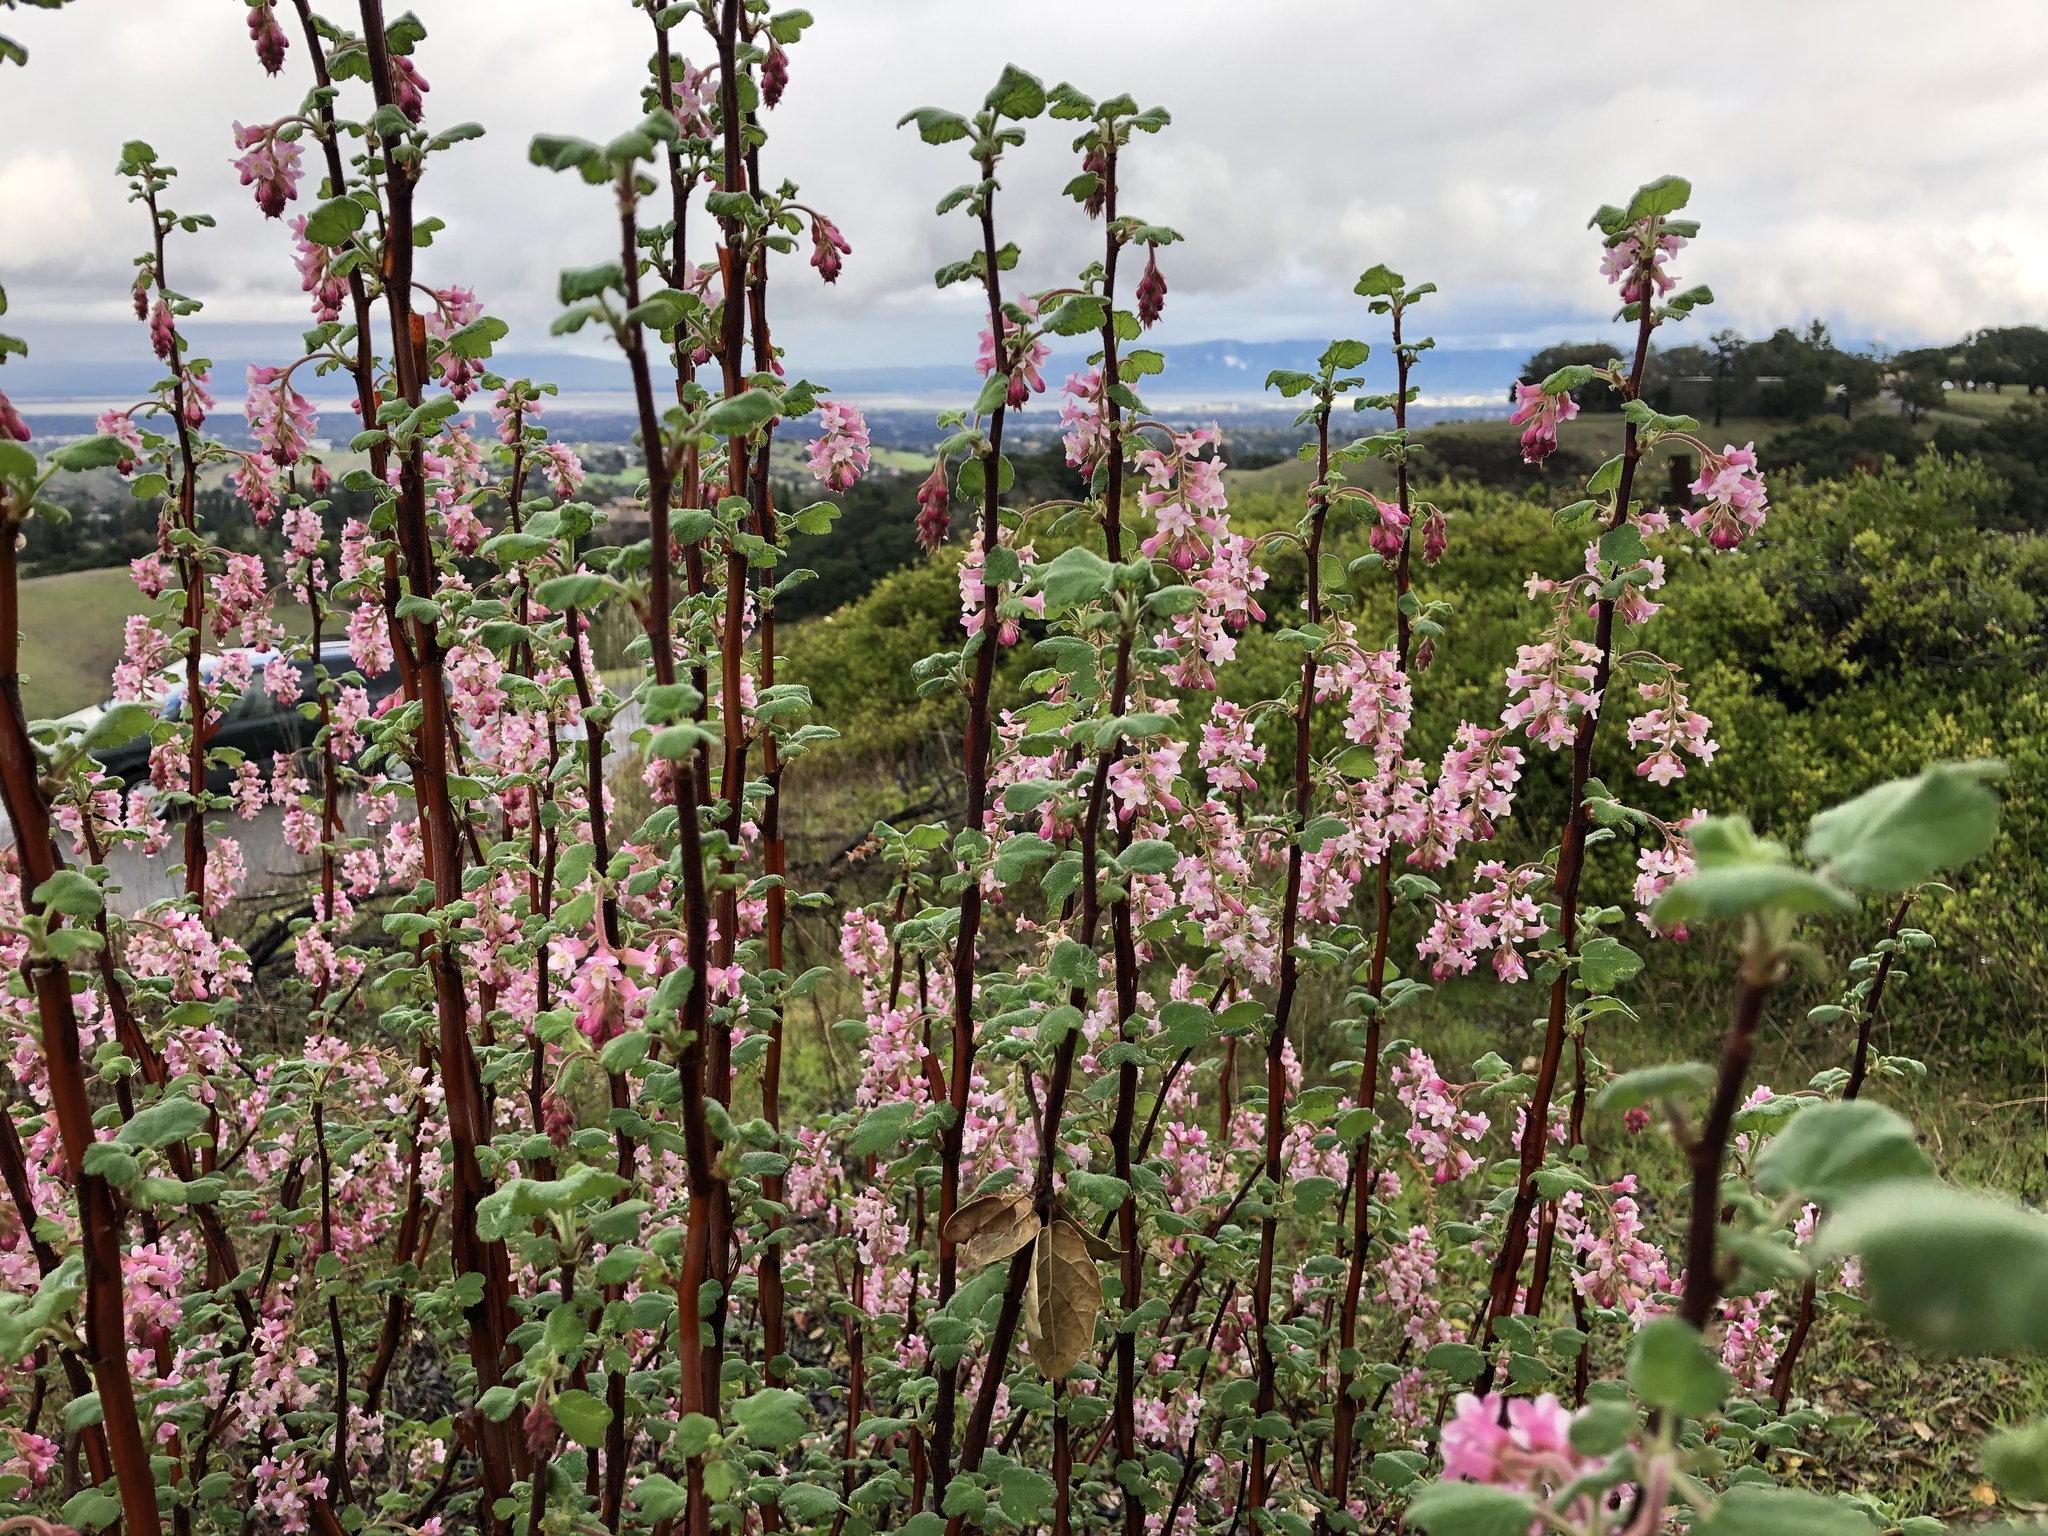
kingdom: Plantae
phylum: Tracheophyta
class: Magnoliopsida
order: Saxifragales
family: Grossulariaceae
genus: Ribes
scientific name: Ribes malvaceum
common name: Chaparral currant
